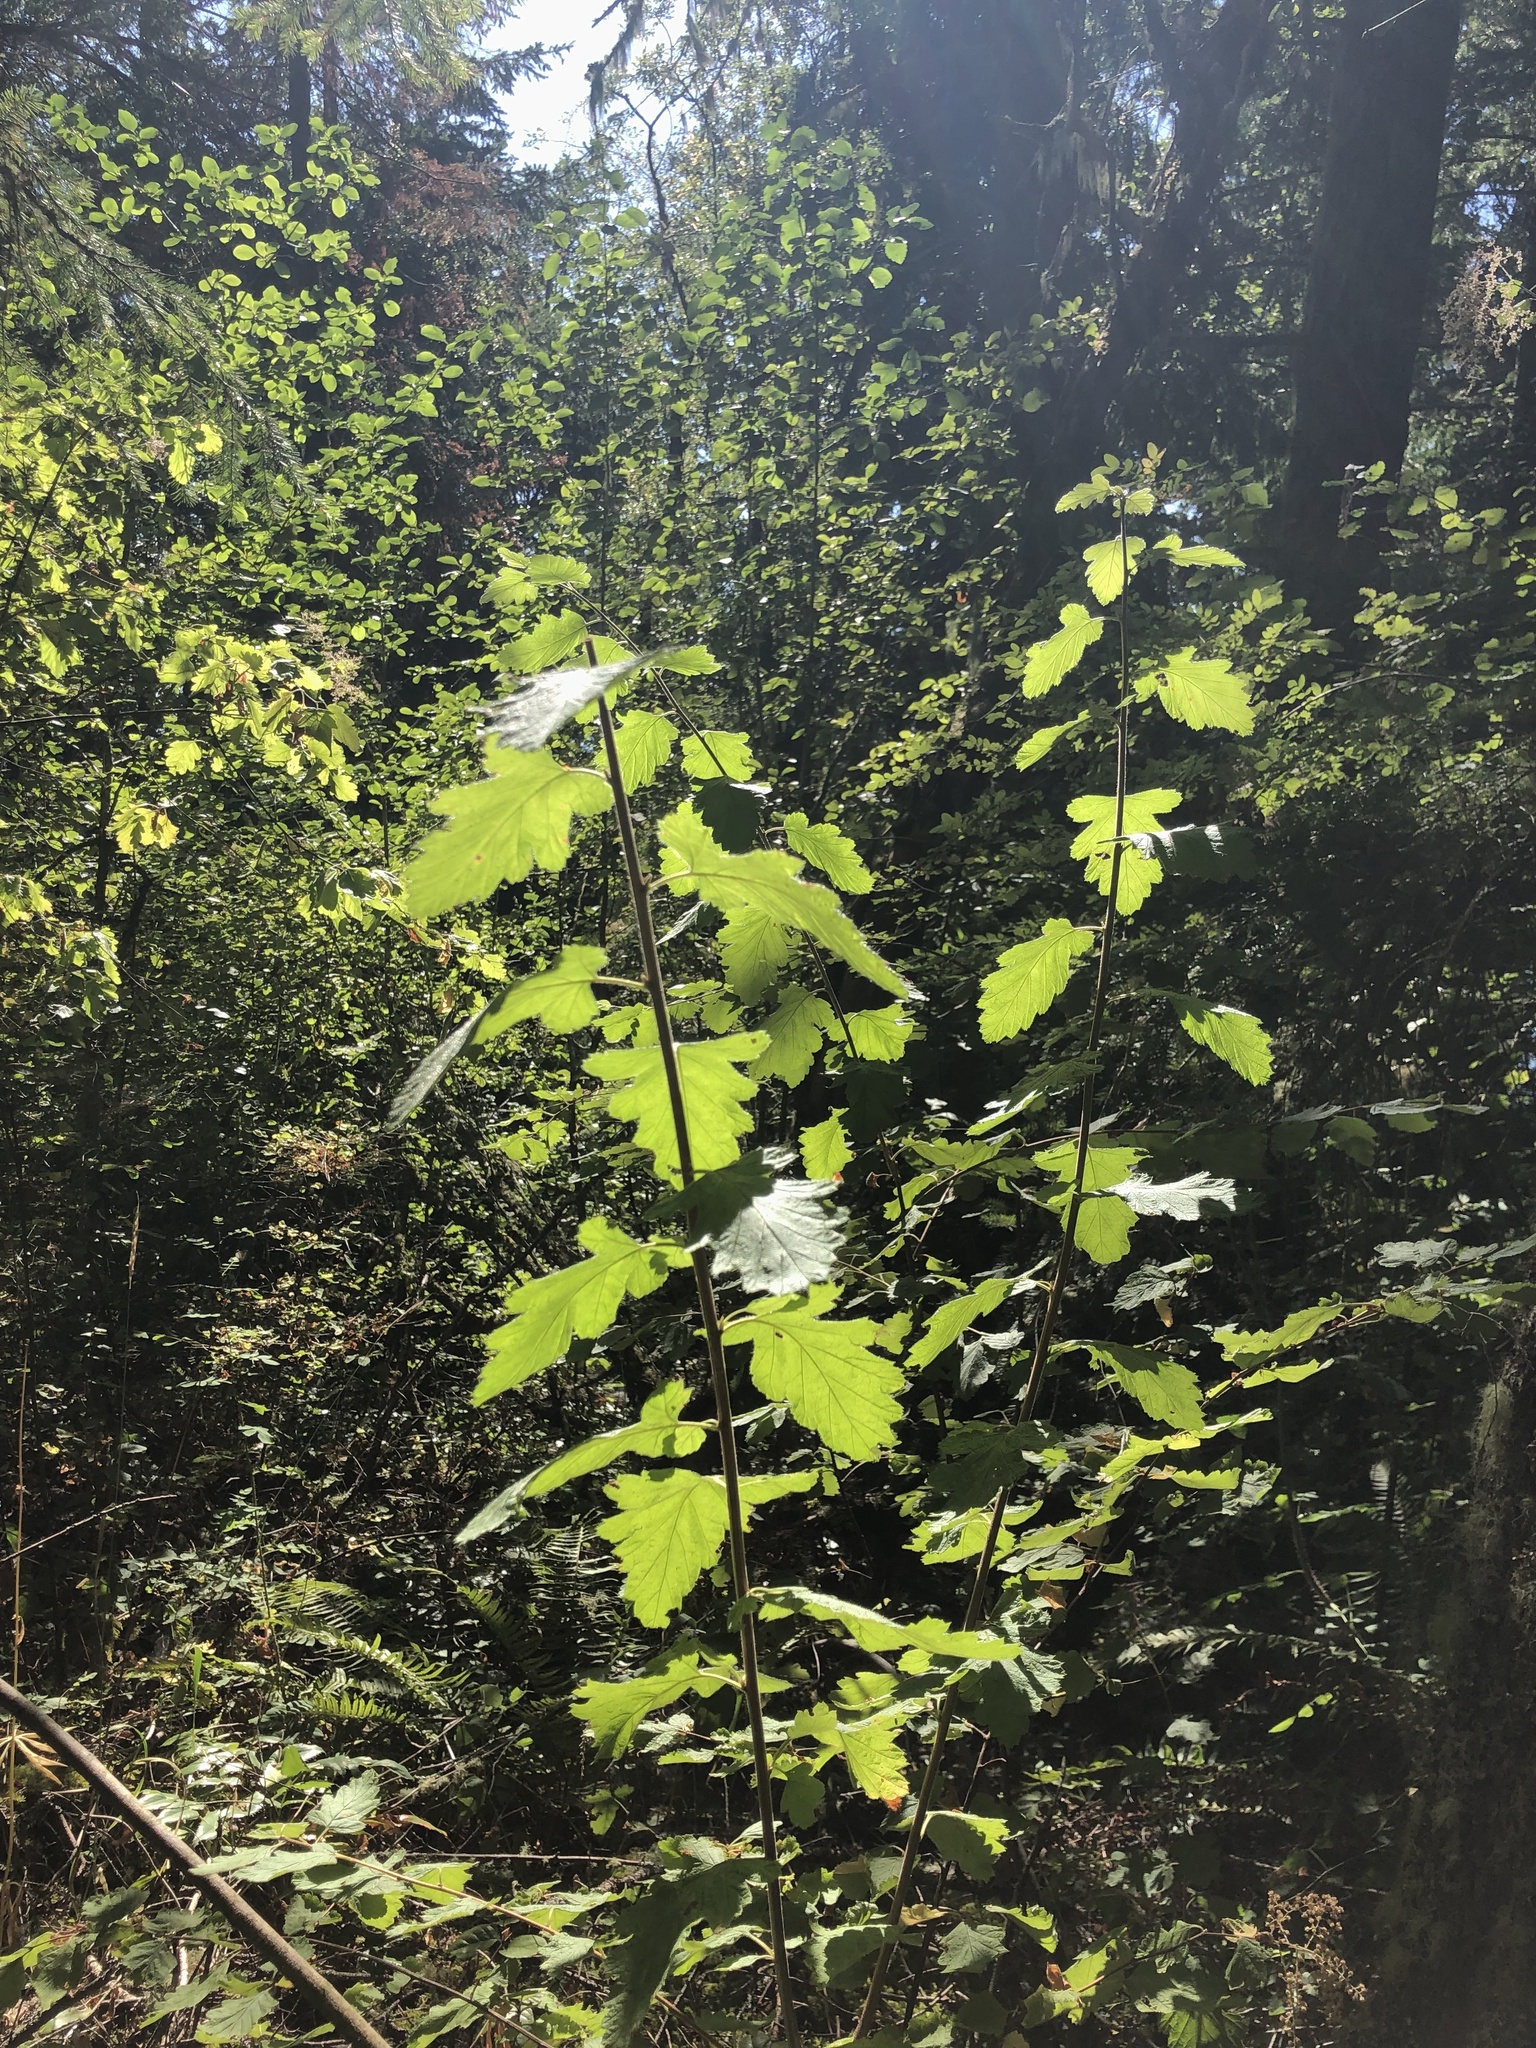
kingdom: Plantae
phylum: Tracheophyta
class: Magnoliopsida
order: Rosales
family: Rosaceae
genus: Holodiscus
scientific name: Holodiscus discolor
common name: Oceanspray
